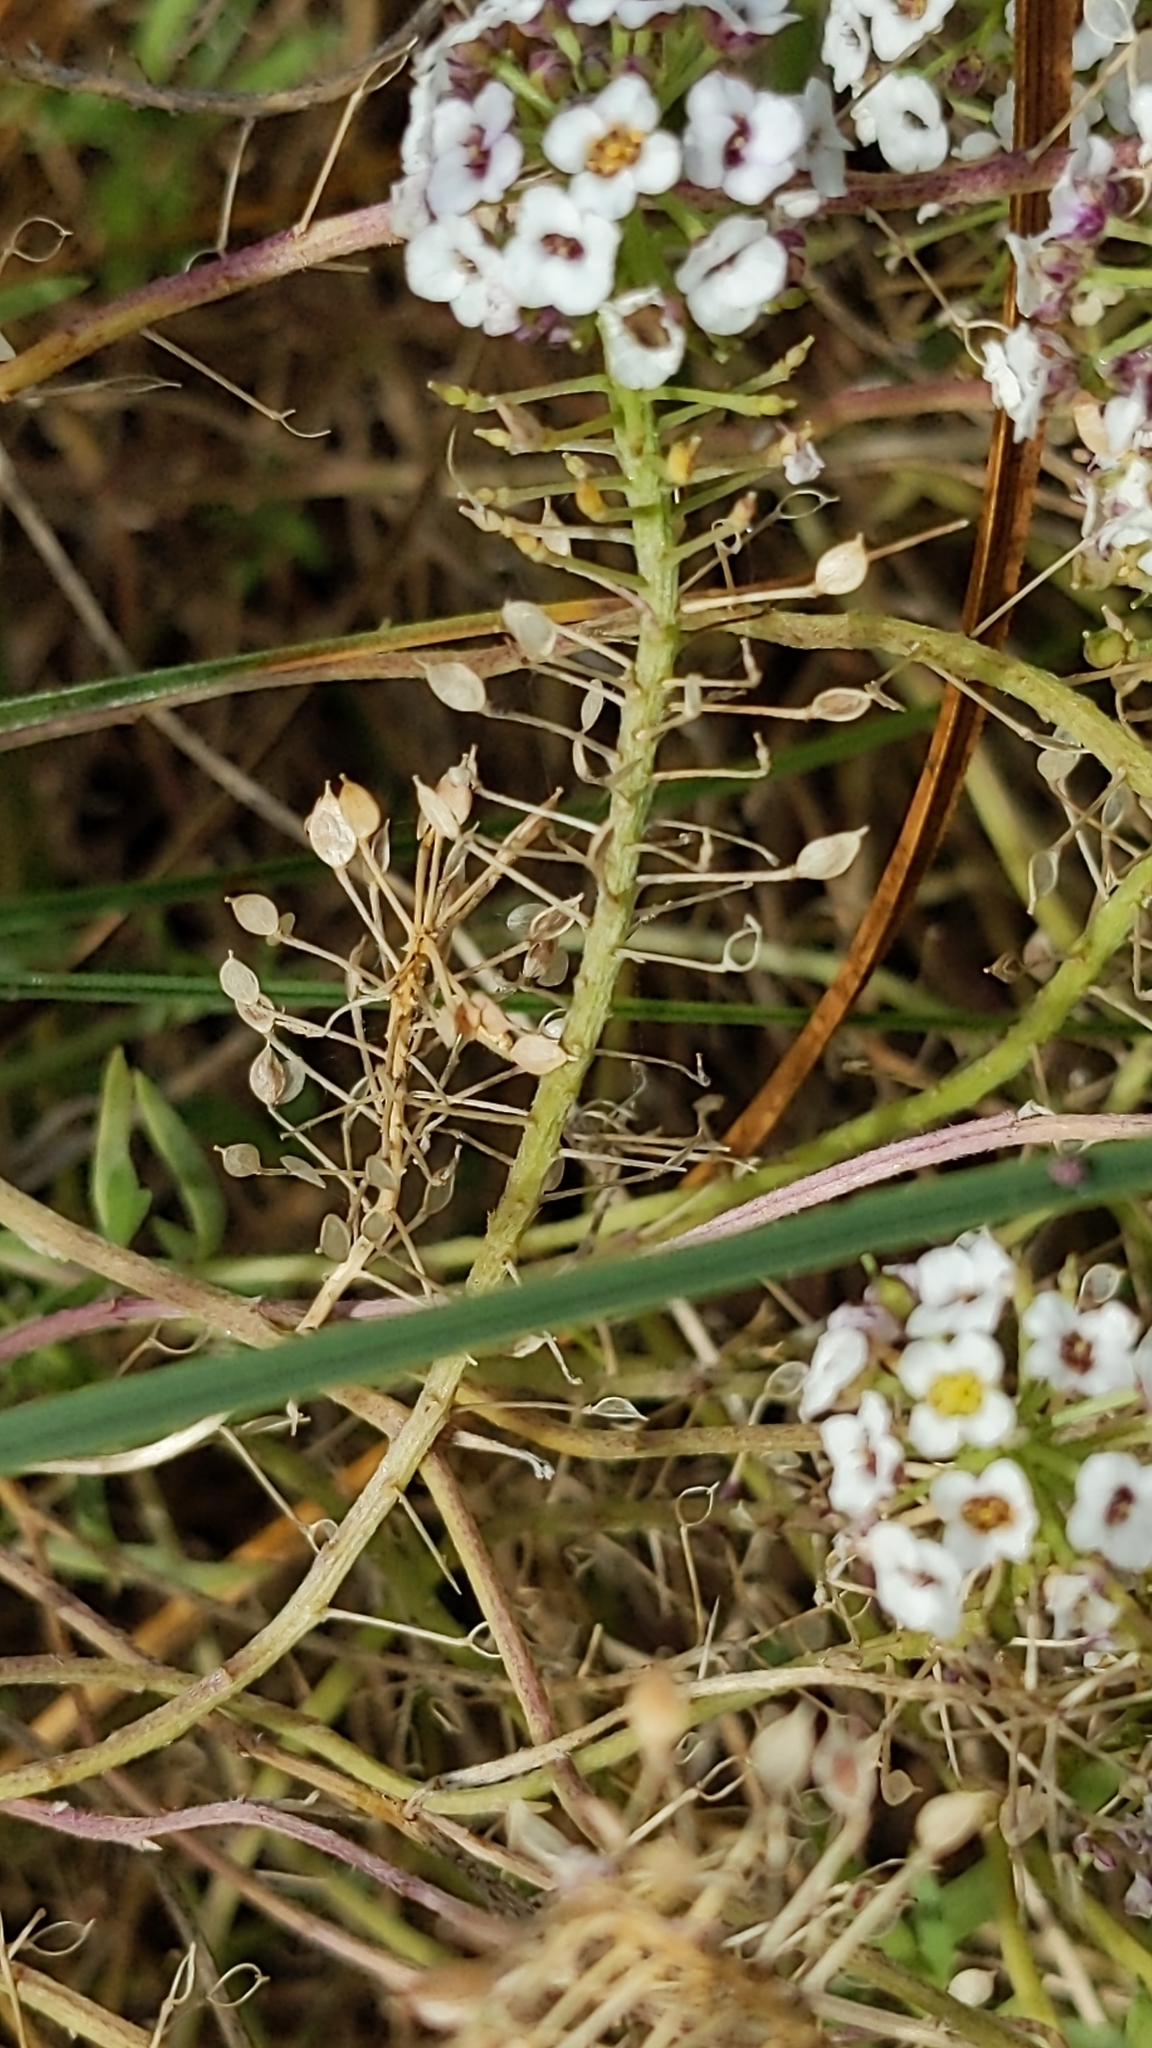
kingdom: Plantae
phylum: Tracheophyta
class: Magnoliopsida
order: Brassicales
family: Brassicaceae
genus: Lobularia
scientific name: Lobularia maritima
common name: Sweet alison
